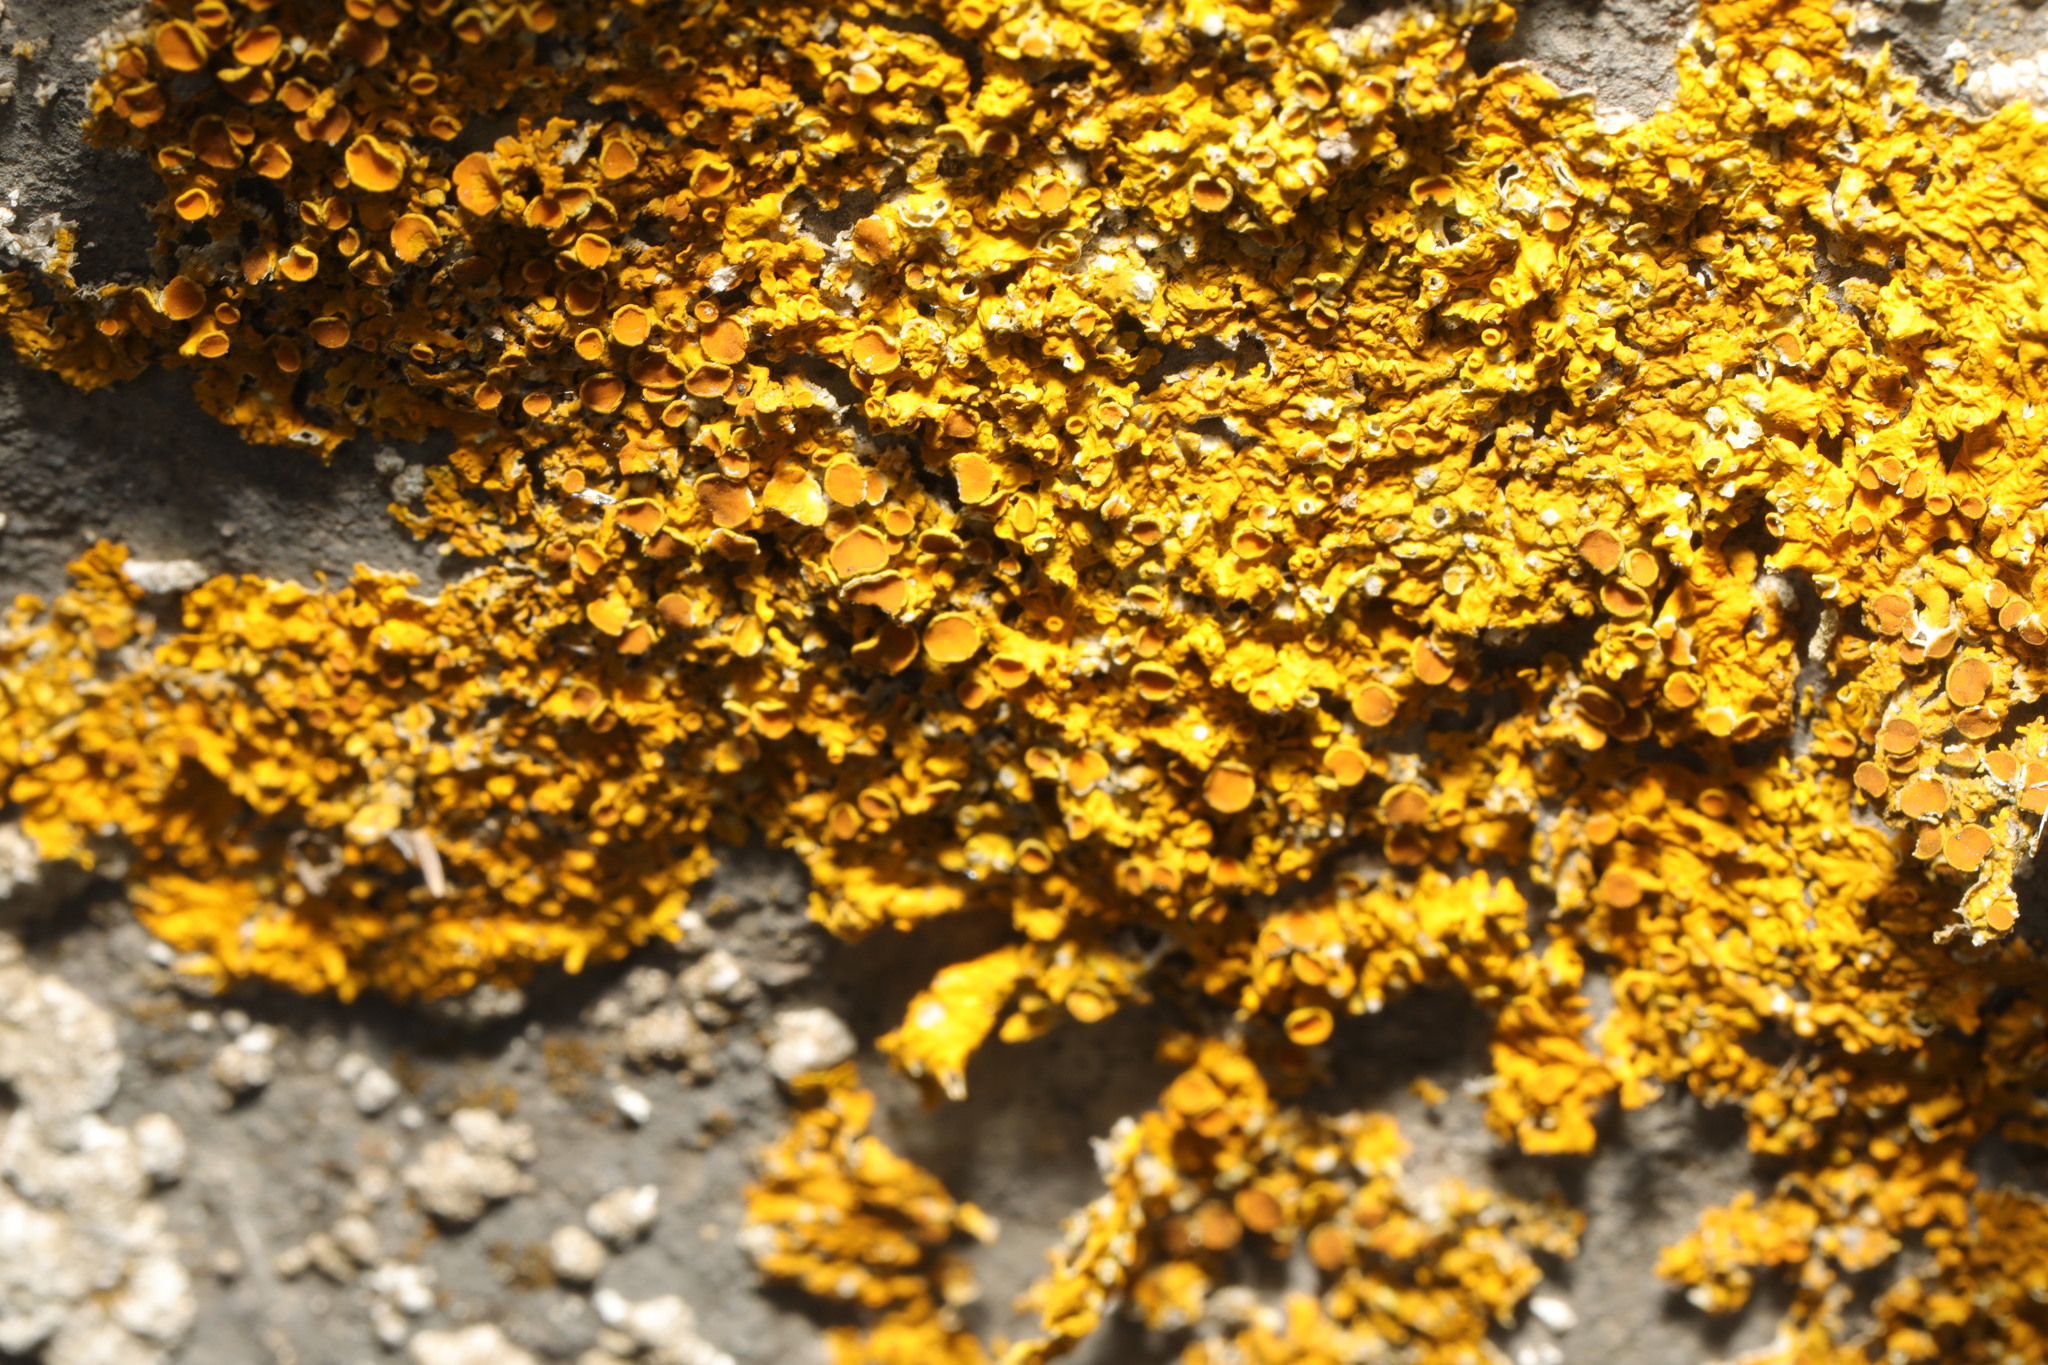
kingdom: Fungi
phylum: Ascomycota
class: Lecanoromycetes
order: Teloschistales
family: Teloschistaceae
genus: Xanthoria
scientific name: Xanthoria parietina
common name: Common orange lichen
